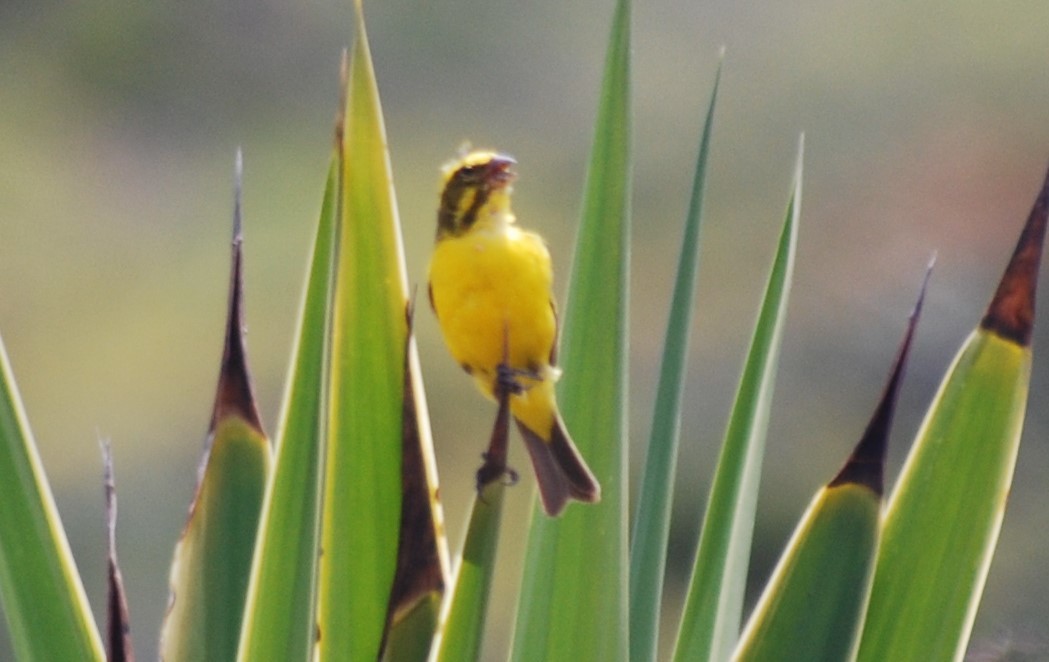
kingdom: Animalia
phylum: Chordata
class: Aves
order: Passeriformes
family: Fringillidae
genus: Crithagra
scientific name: Crithagra sulphurata
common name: Brimstone canary
